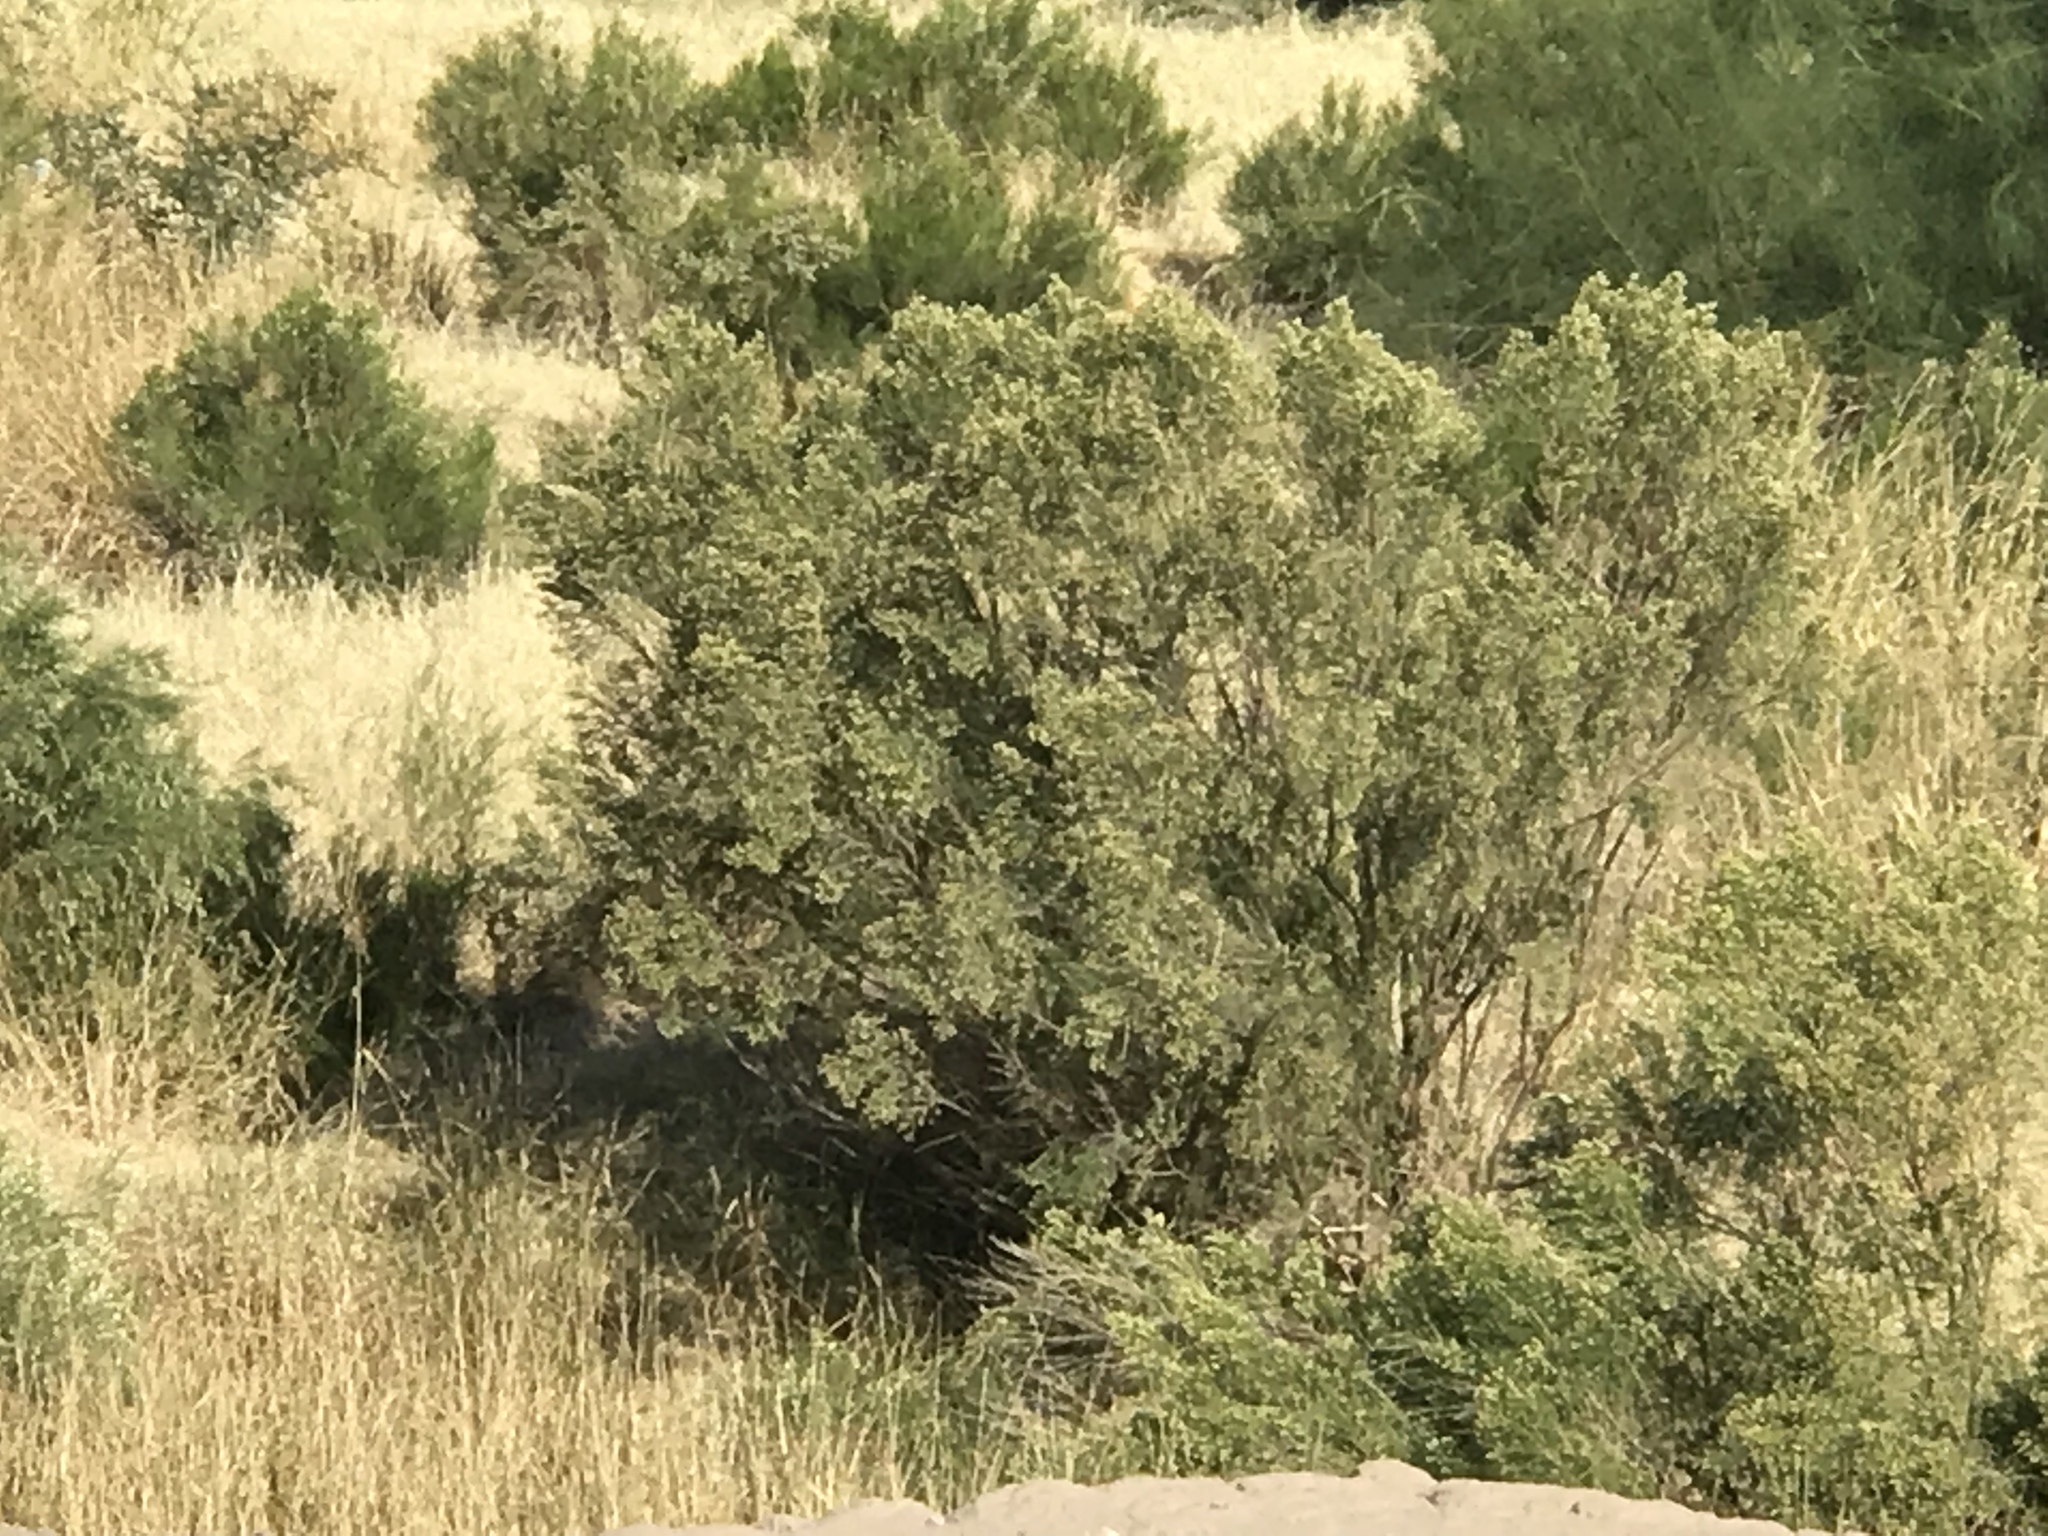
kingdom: Plantae
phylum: Tracheophyta
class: Magnoliopsida
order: Asterales
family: Asteraceae
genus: Baccharis
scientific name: Baccharis sarothroides
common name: Desert-broom
